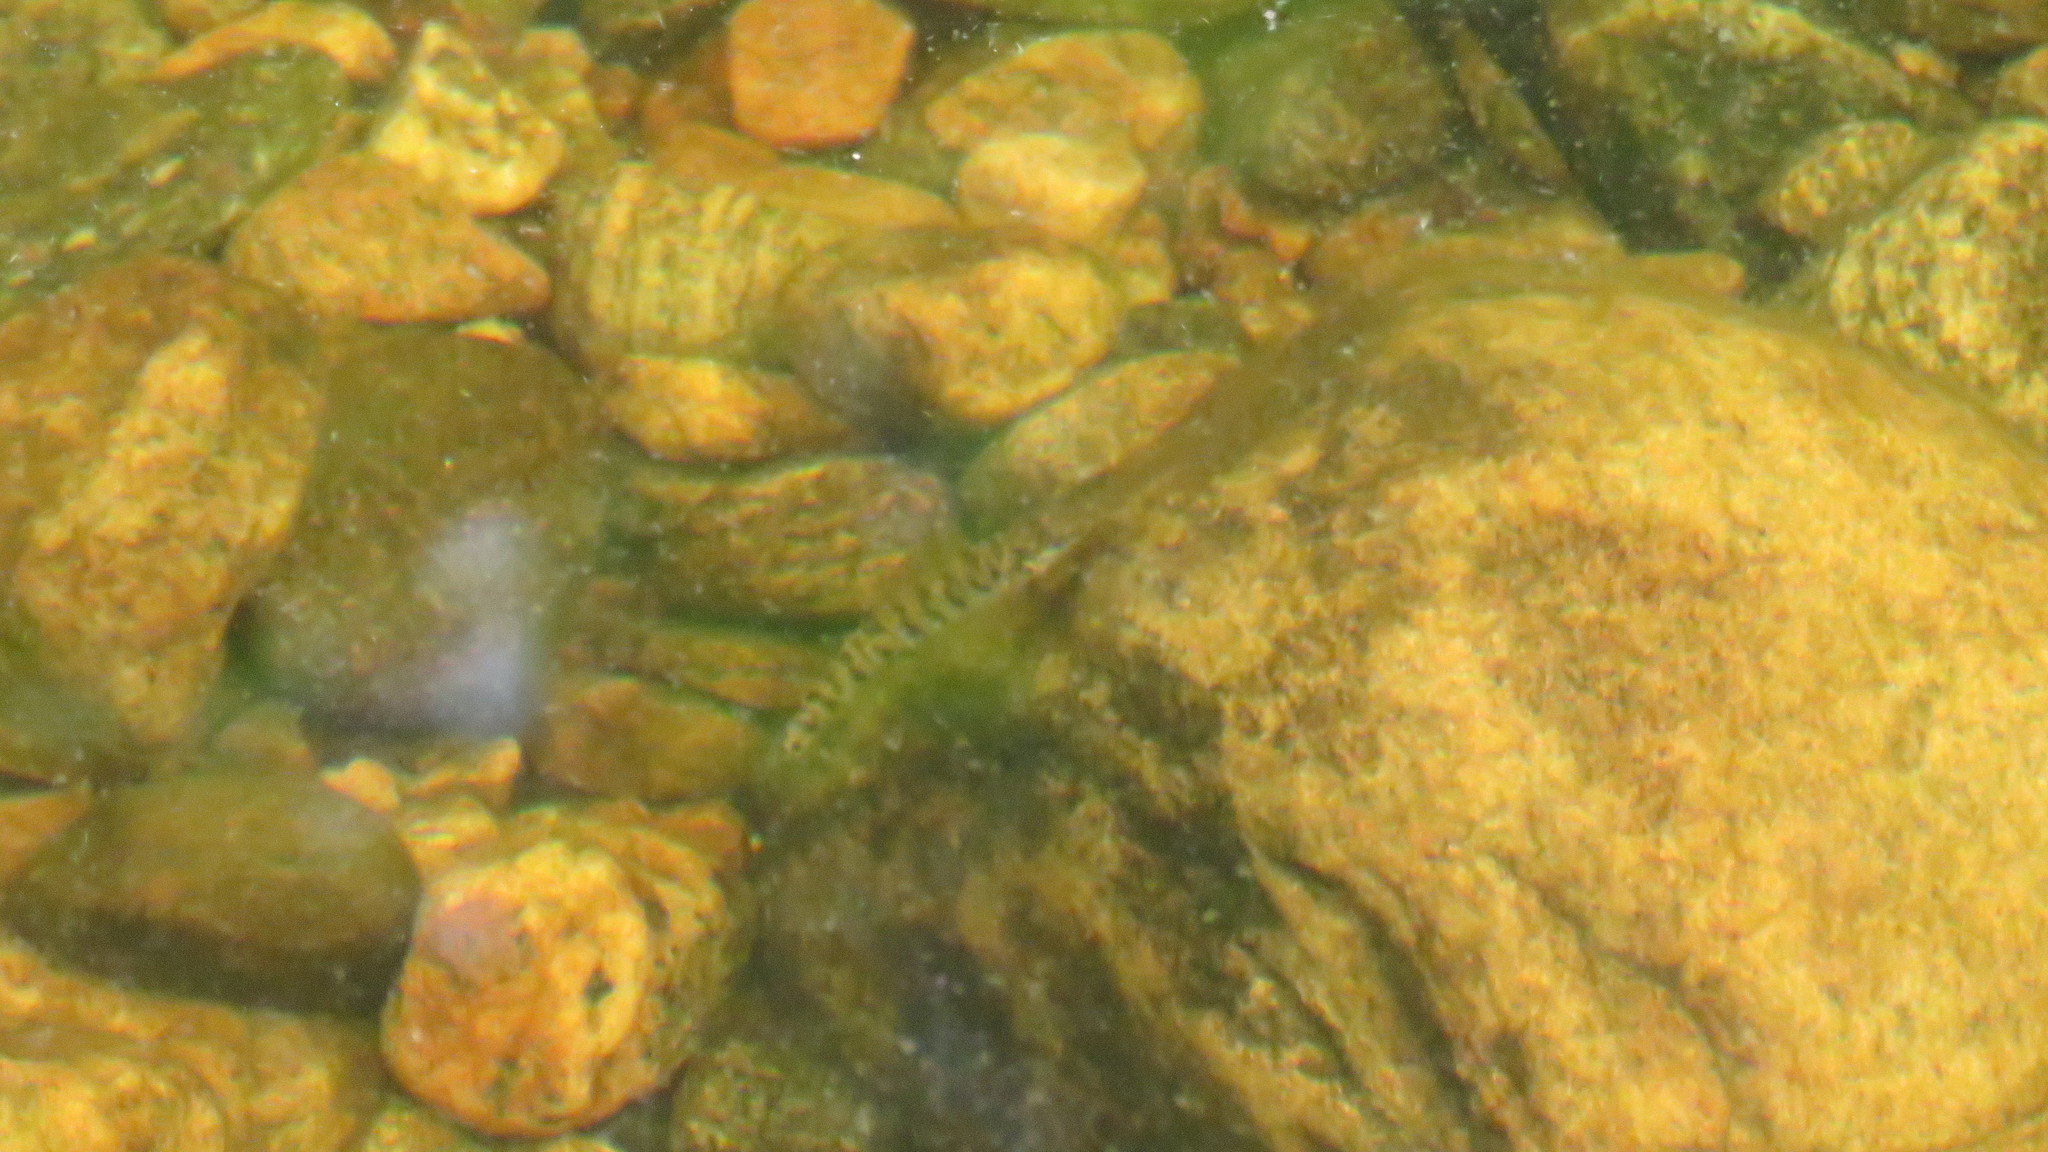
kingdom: Animalia
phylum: Chordata
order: Perciformes
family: Percidae
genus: Percina
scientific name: Percina caprodes
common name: Logperch
